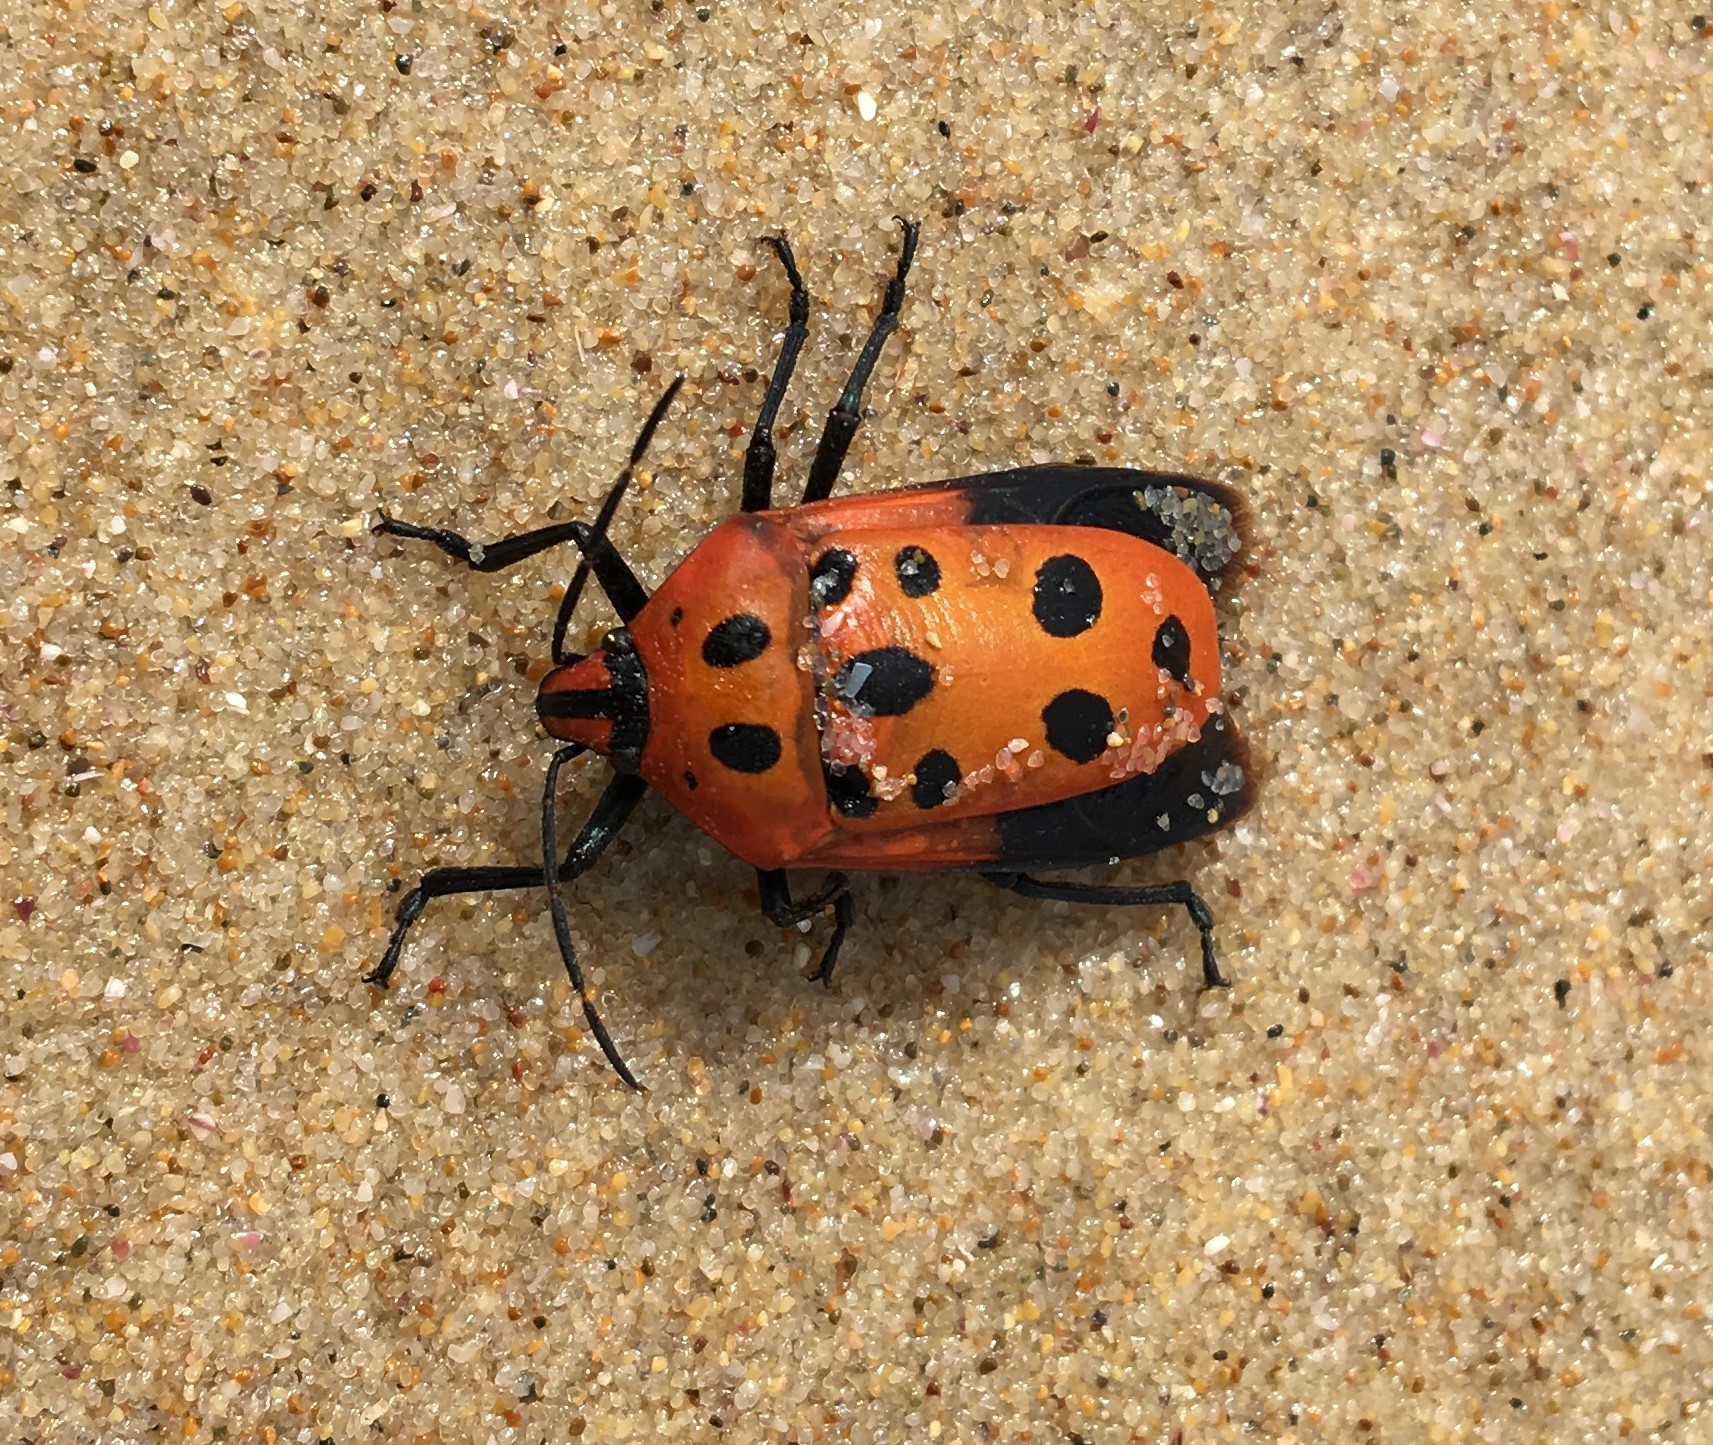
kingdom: Animalia
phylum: Arthropoda
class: Insecta
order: Hemiptera
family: Scutelleridae
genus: Cantao
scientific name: Cantao
